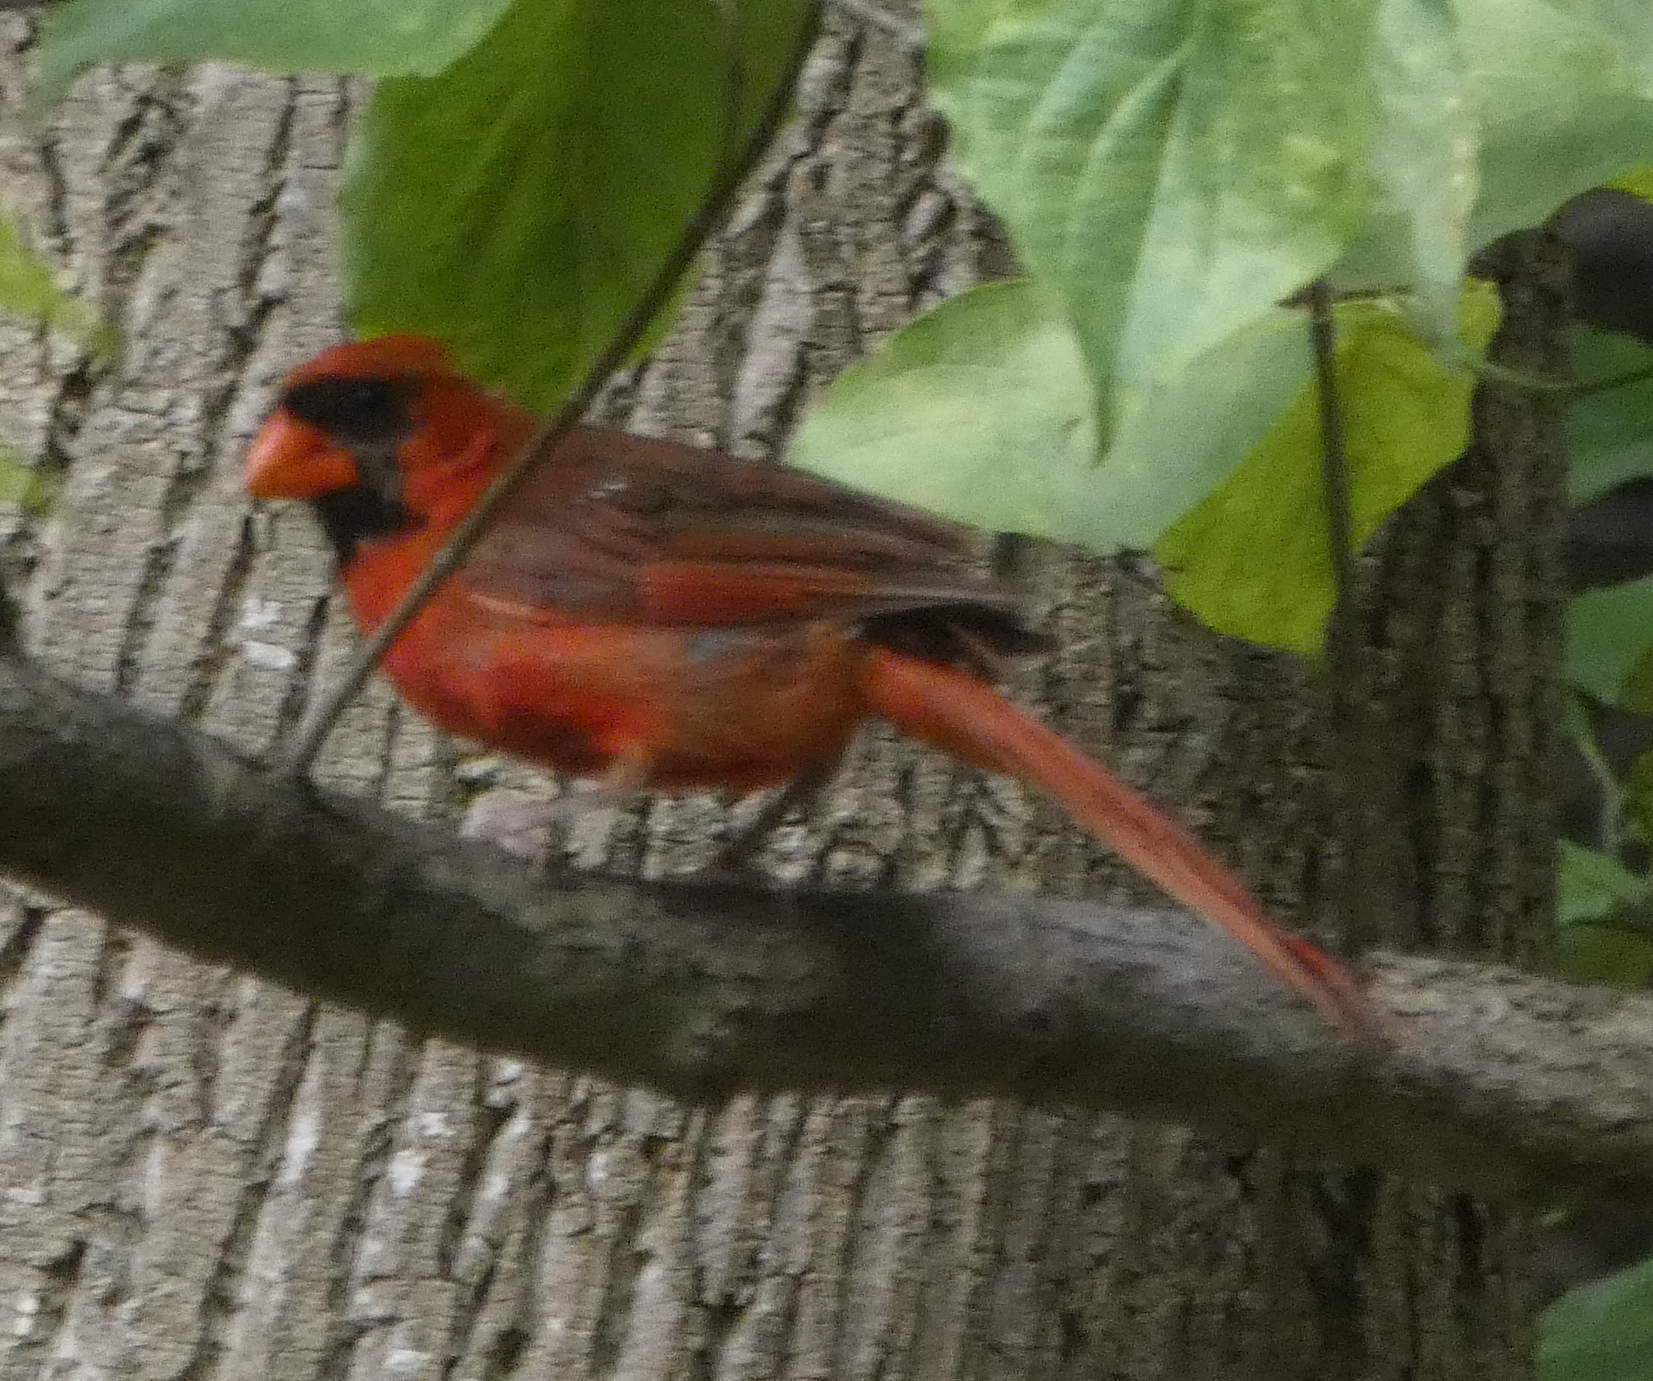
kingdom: Animalia
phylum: Chordata
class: Aves
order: Passeriformes
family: Cardinalidae
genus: Cardinalis
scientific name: Cardinalis cardinalis
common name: Northern cardinal
